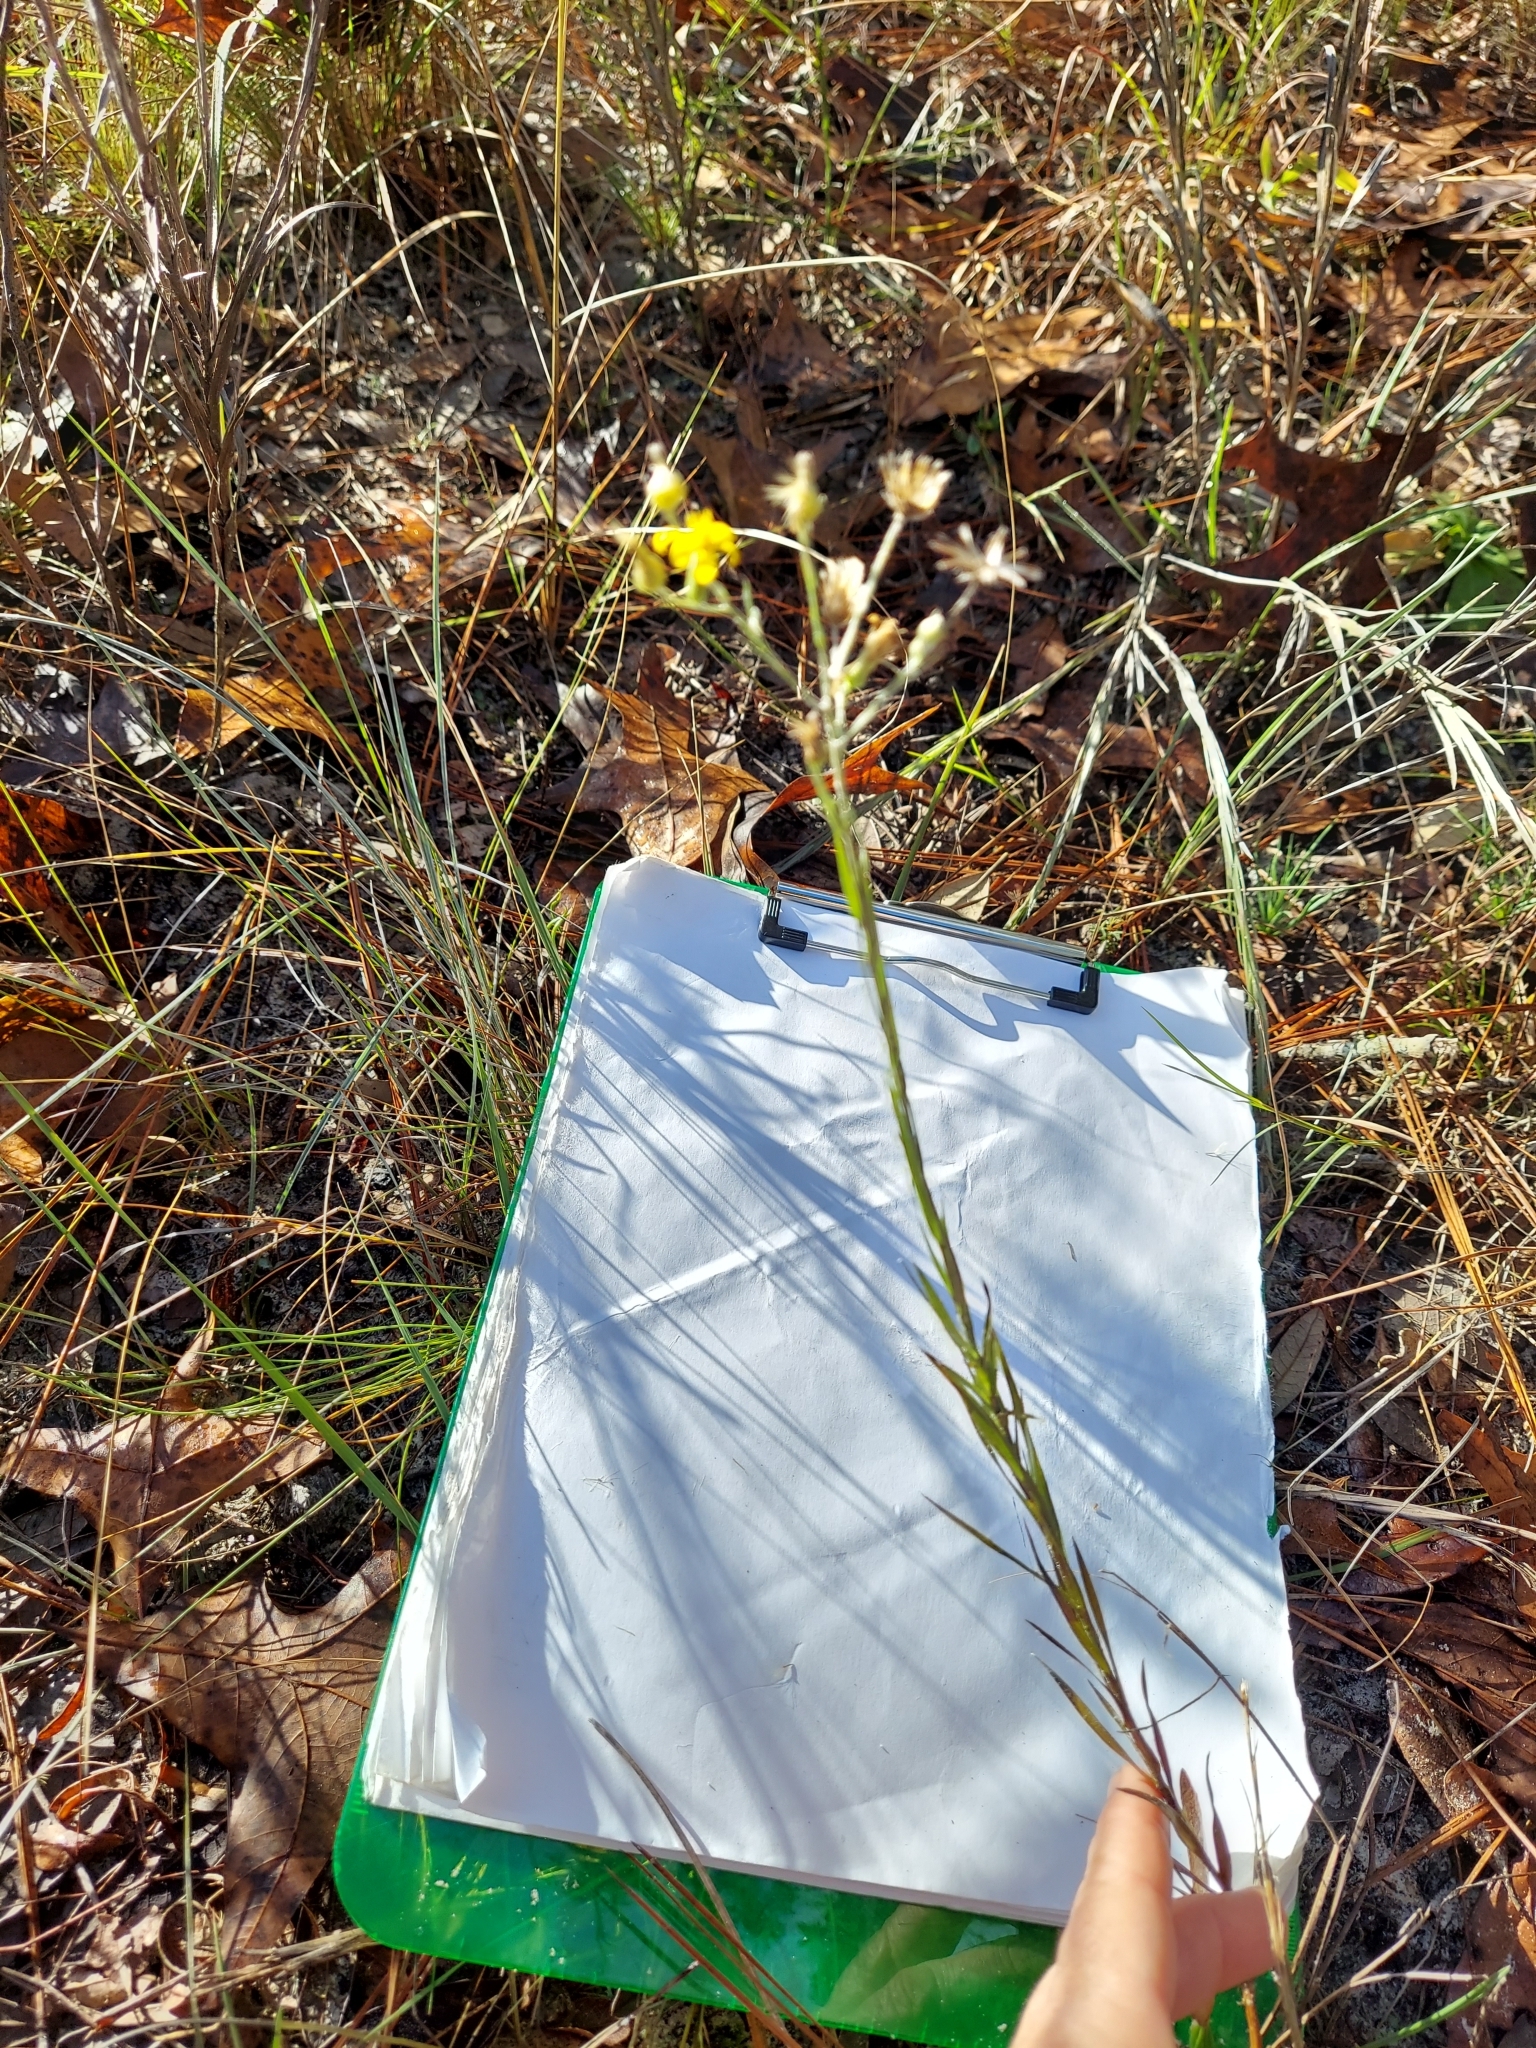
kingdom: Plantae
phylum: Tracheophyta
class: Magnoliopsida
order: Asterales
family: Asteraceae
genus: Pityopsis
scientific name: Pityopsis graminifolia
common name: Grass-leaf golden-aster
